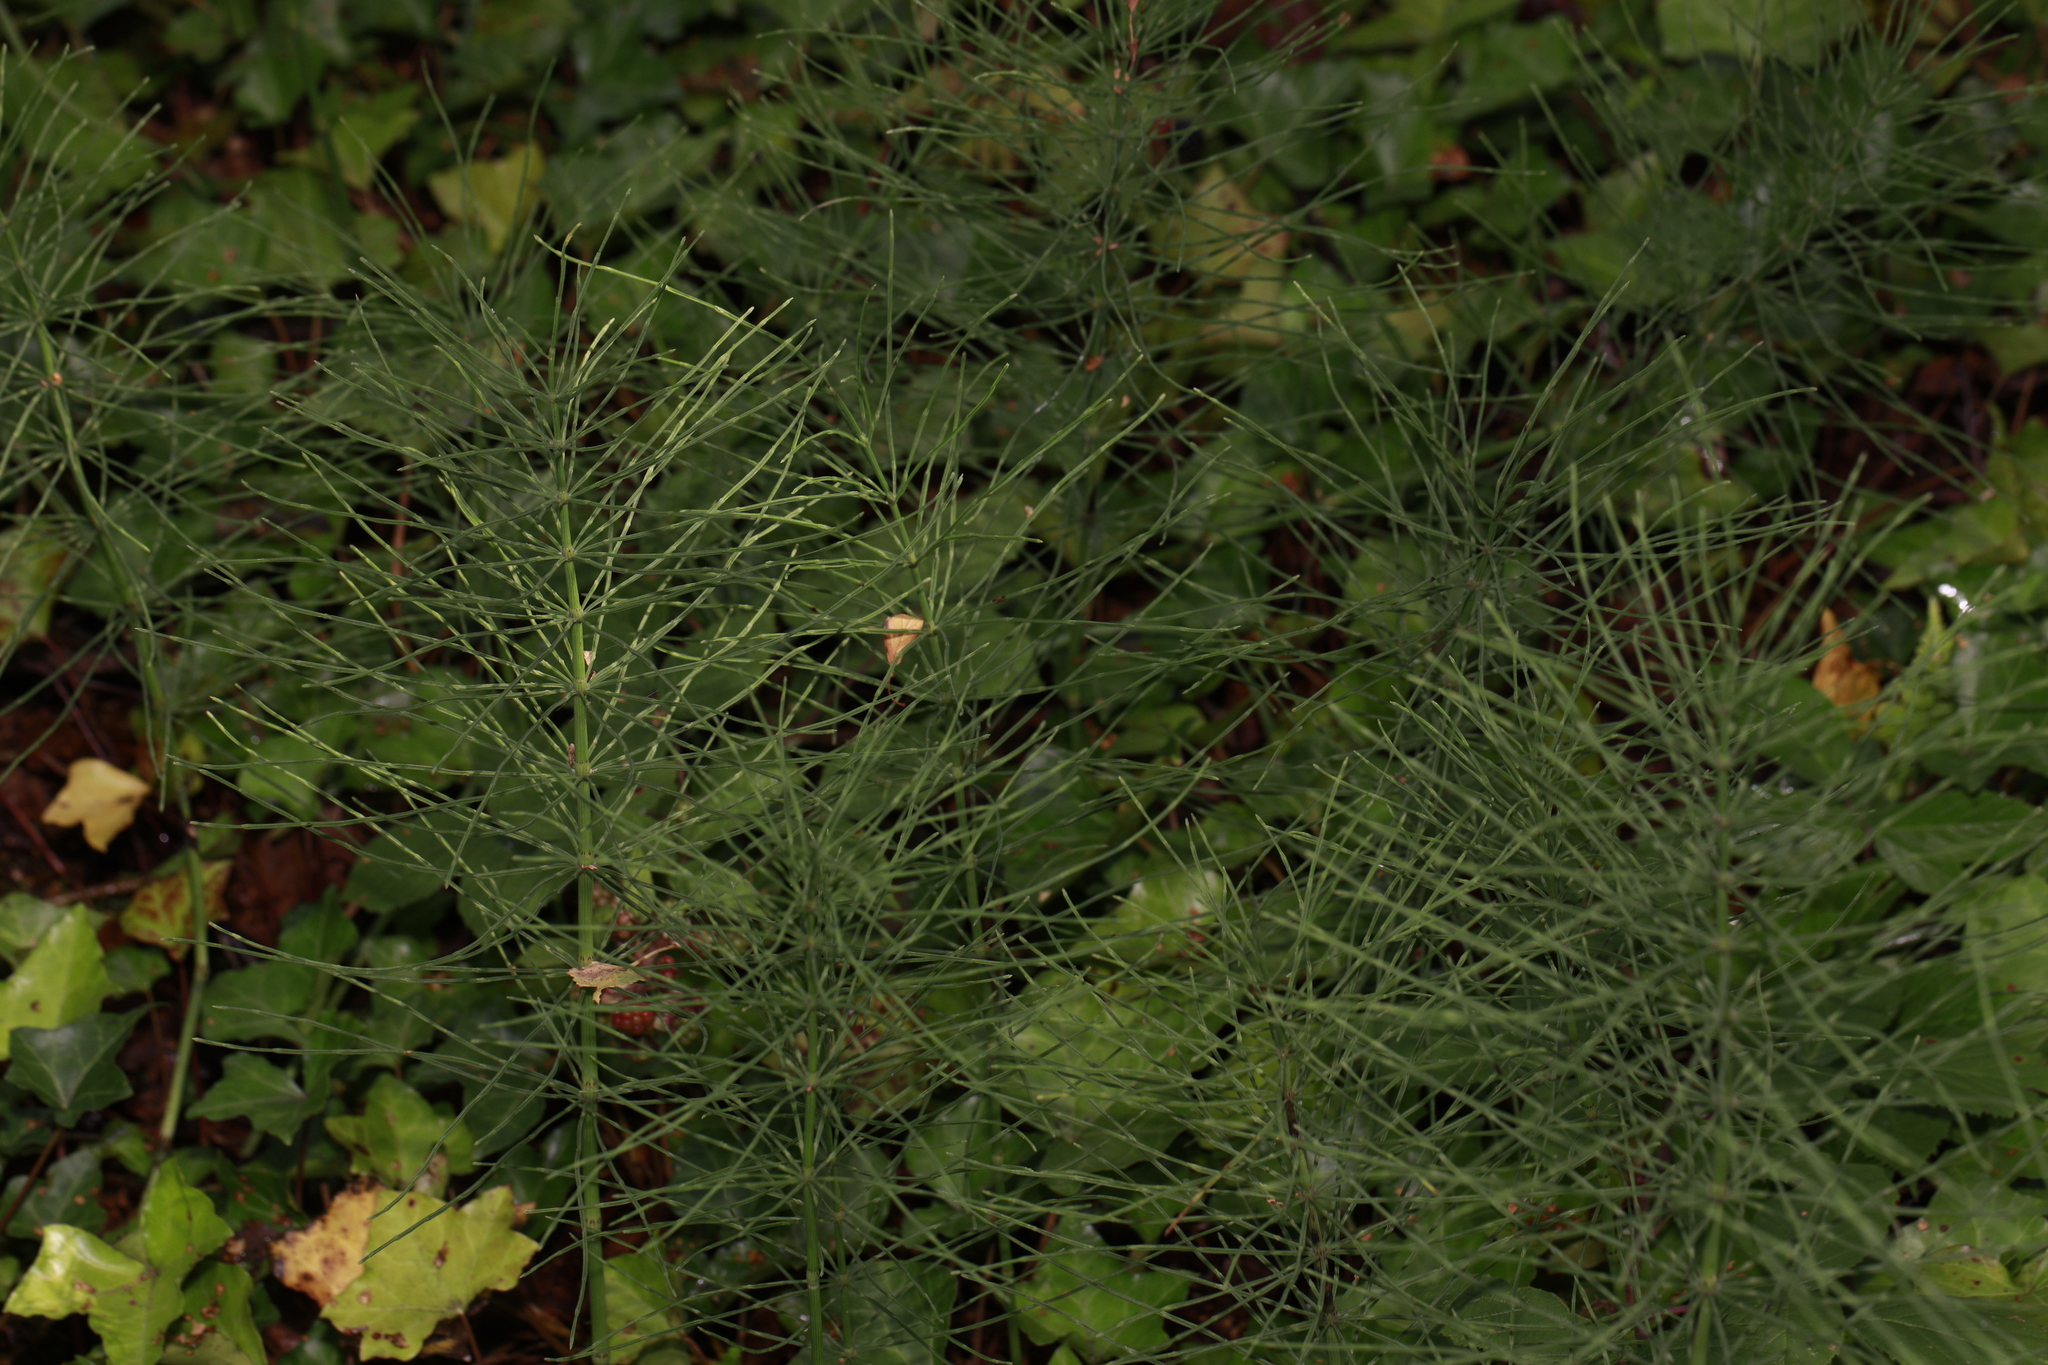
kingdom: Plantae
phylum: Tracheophyta
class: Polypodiopsida
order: Equisetales
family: Equisetaceae
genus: Equisetum
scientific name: Equisetum arvense
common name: Field horsetail
